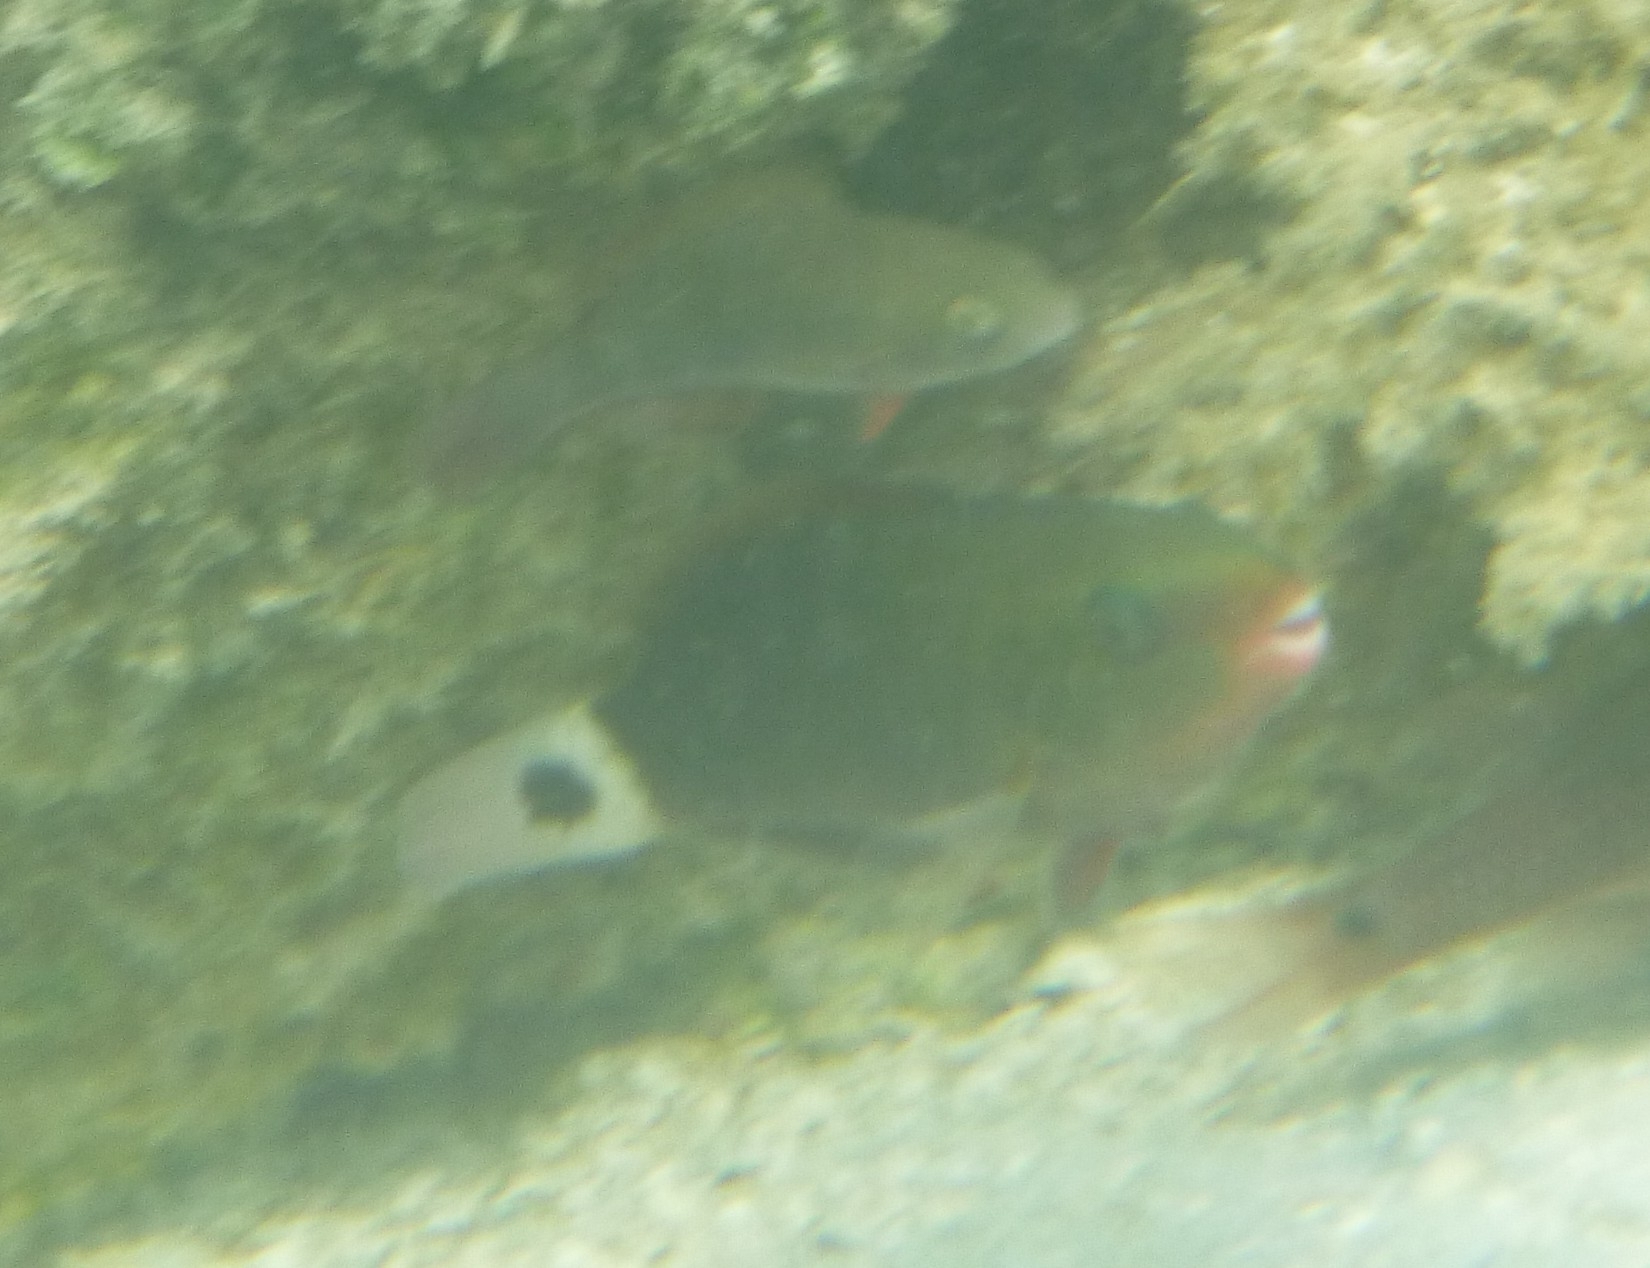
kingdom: Animalia
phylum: Chordata
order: Perciformes
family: Scaridae
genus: Chlorurus
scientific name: Chlorurus spilurus
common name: Bullethead parrotfish
